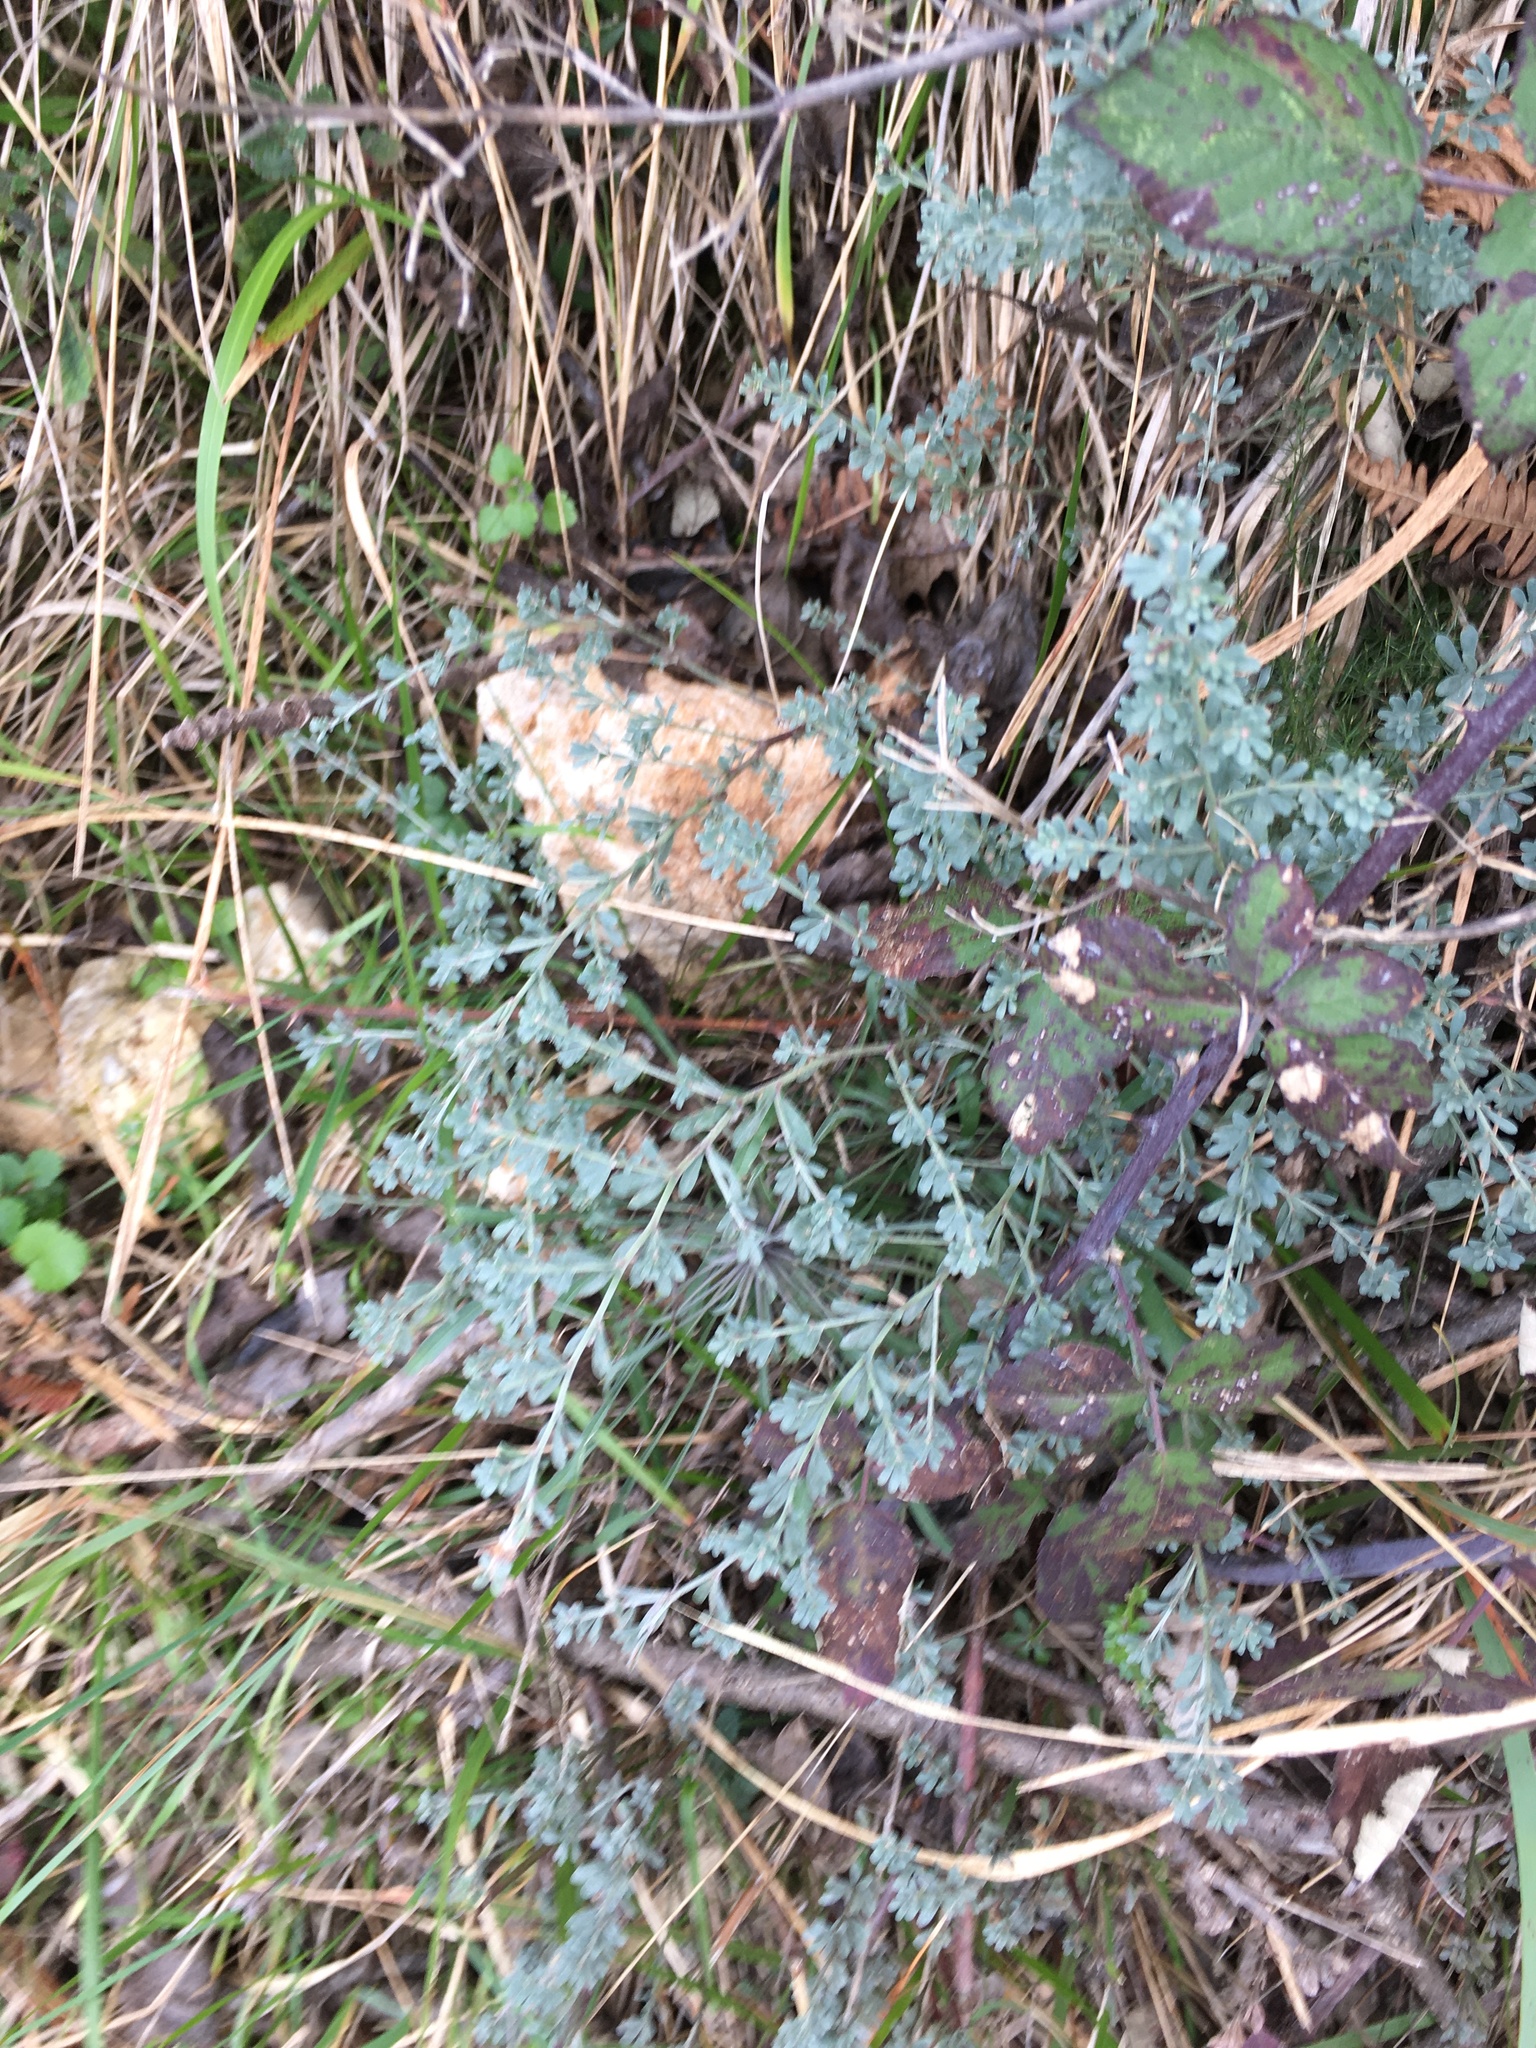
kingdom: Plantae
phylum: Tracheophyta
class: Magnoliopsida
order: Fabales
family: Fabaceae
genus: Lotus
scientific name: Lotus dorycnium
